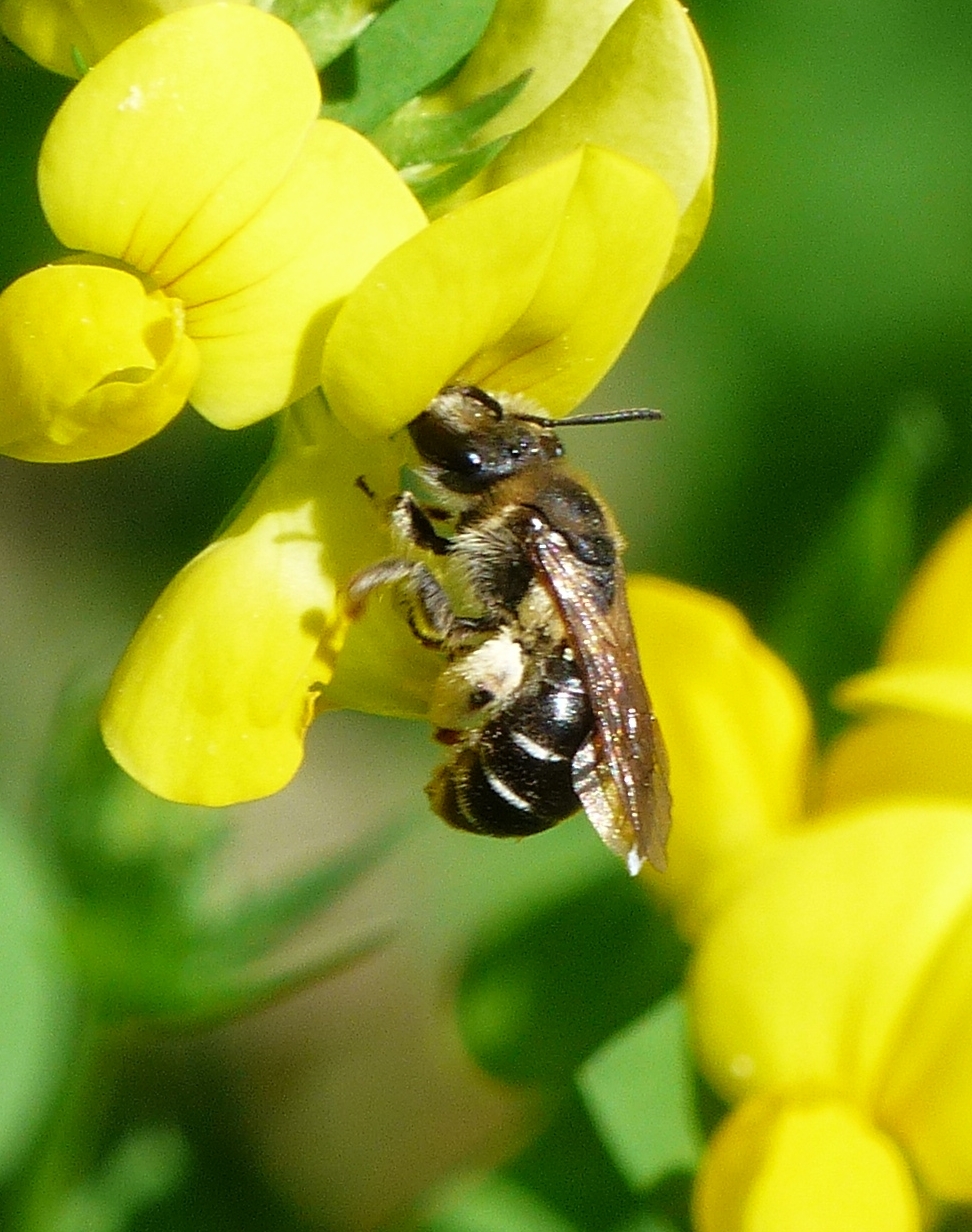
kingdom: Animalia
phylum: Arthropoda
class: Insecta
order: Hymenoptera
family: Andrenidae
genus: Andrena
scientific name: Andrena wilkella
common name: Wilke's mining bee
